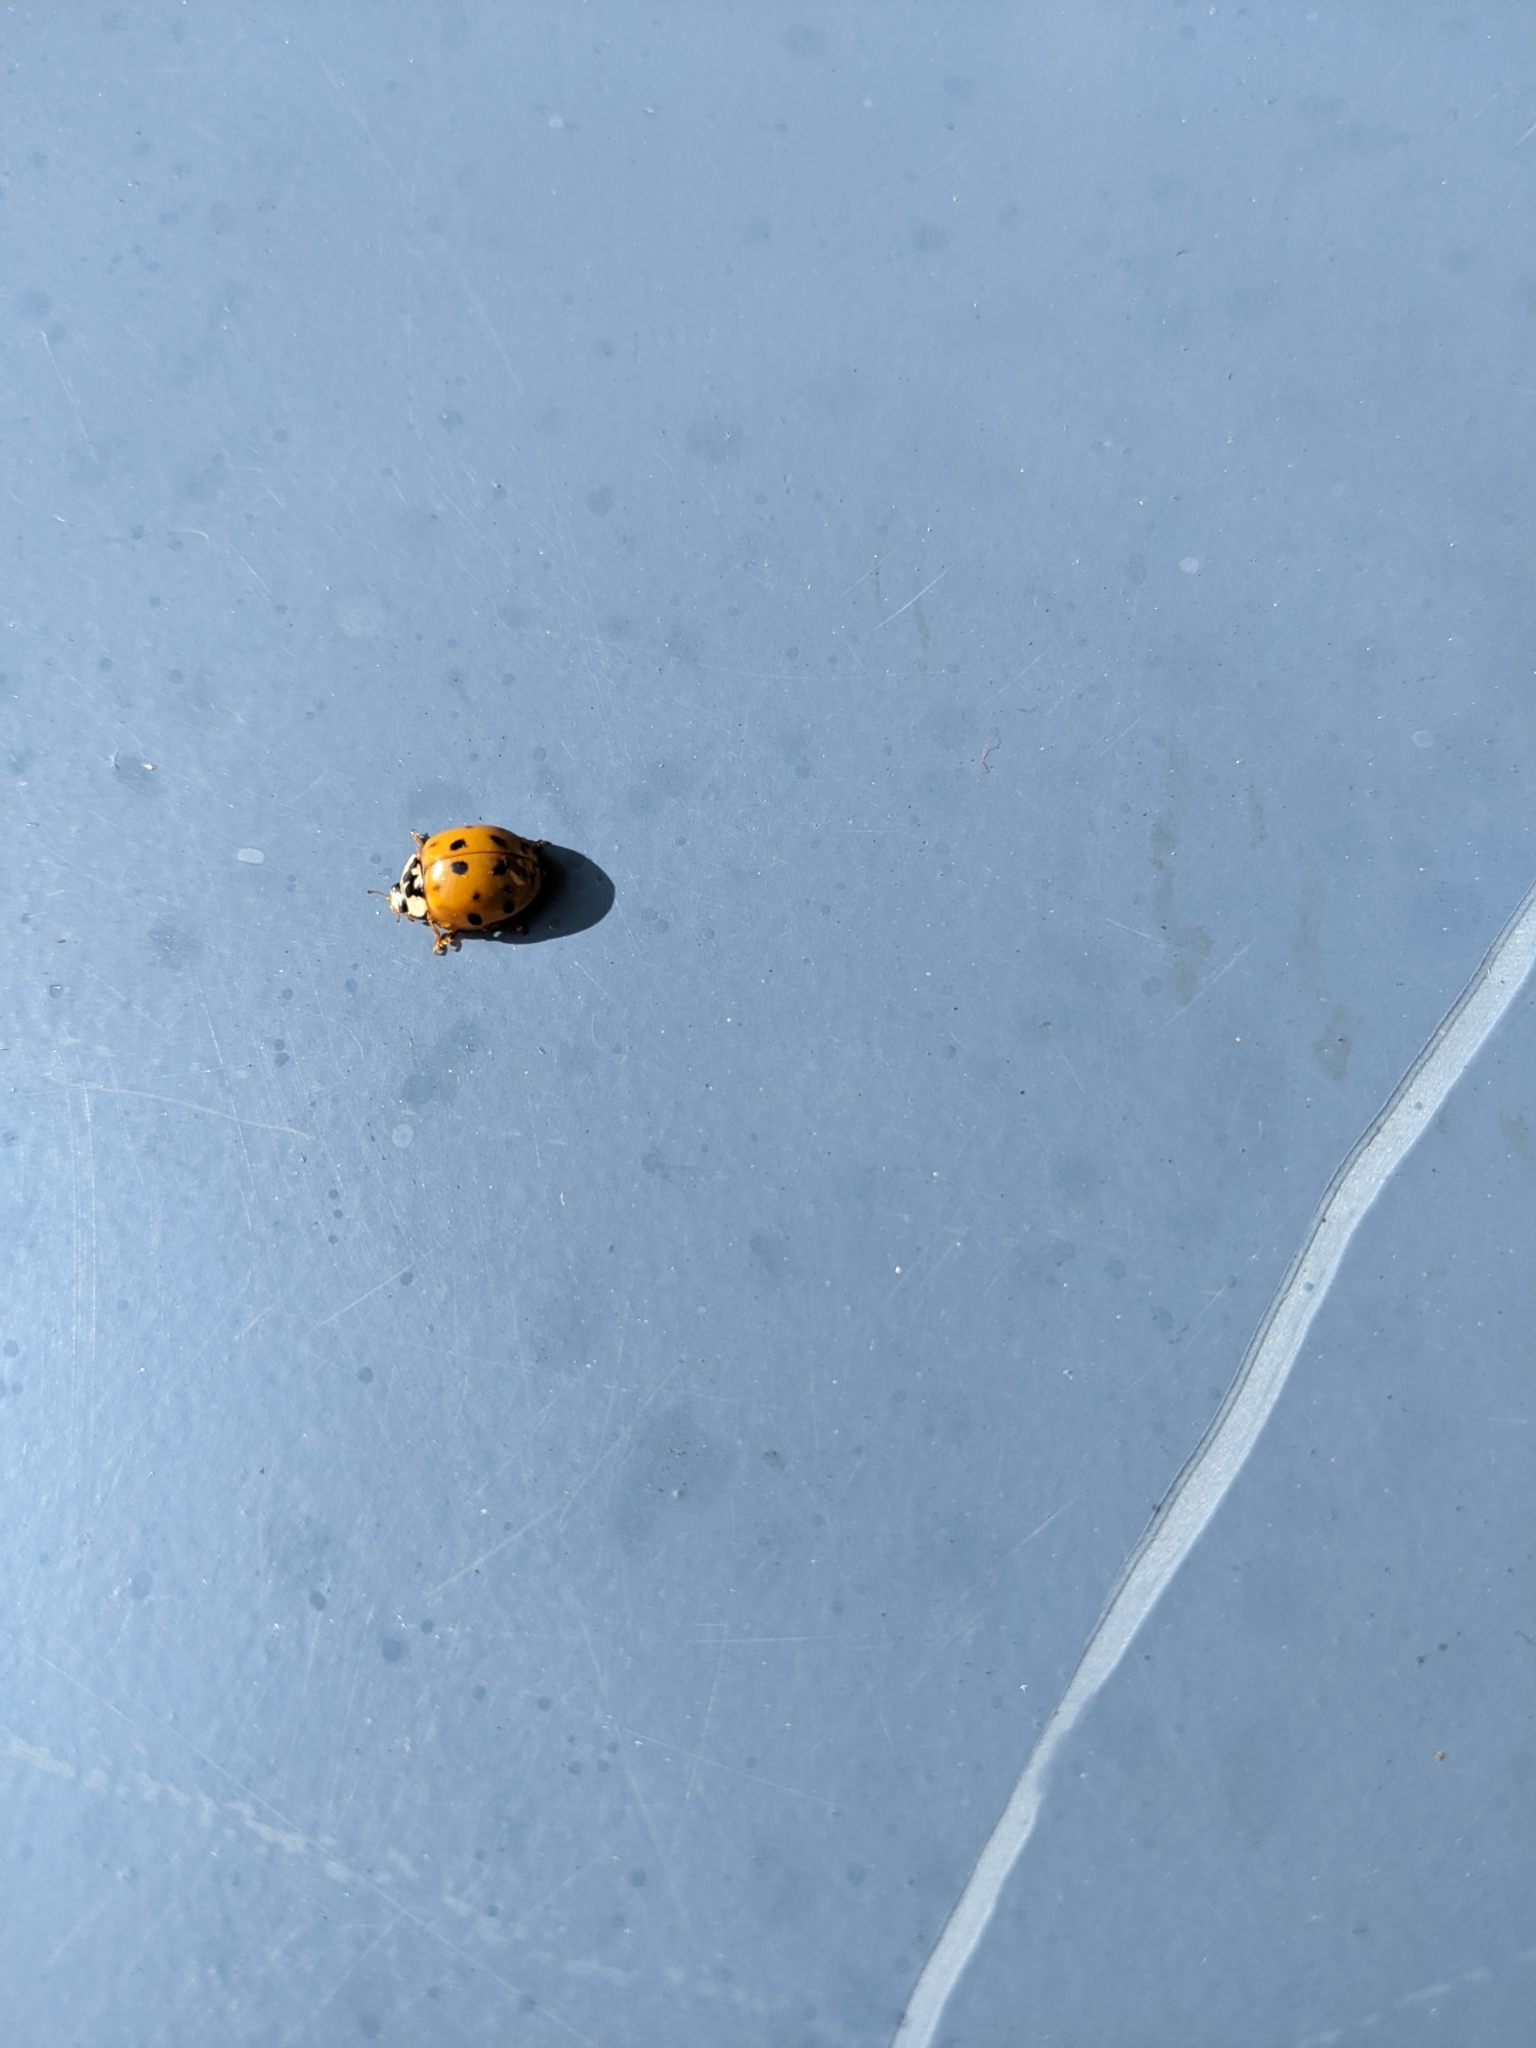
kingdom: Animalia
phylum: Arthropoda
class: Insecta
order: Coleoptera
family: Coccinellidae
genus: Harmonia
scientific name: Harmonia axyridis
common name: Harlequin ladybird
